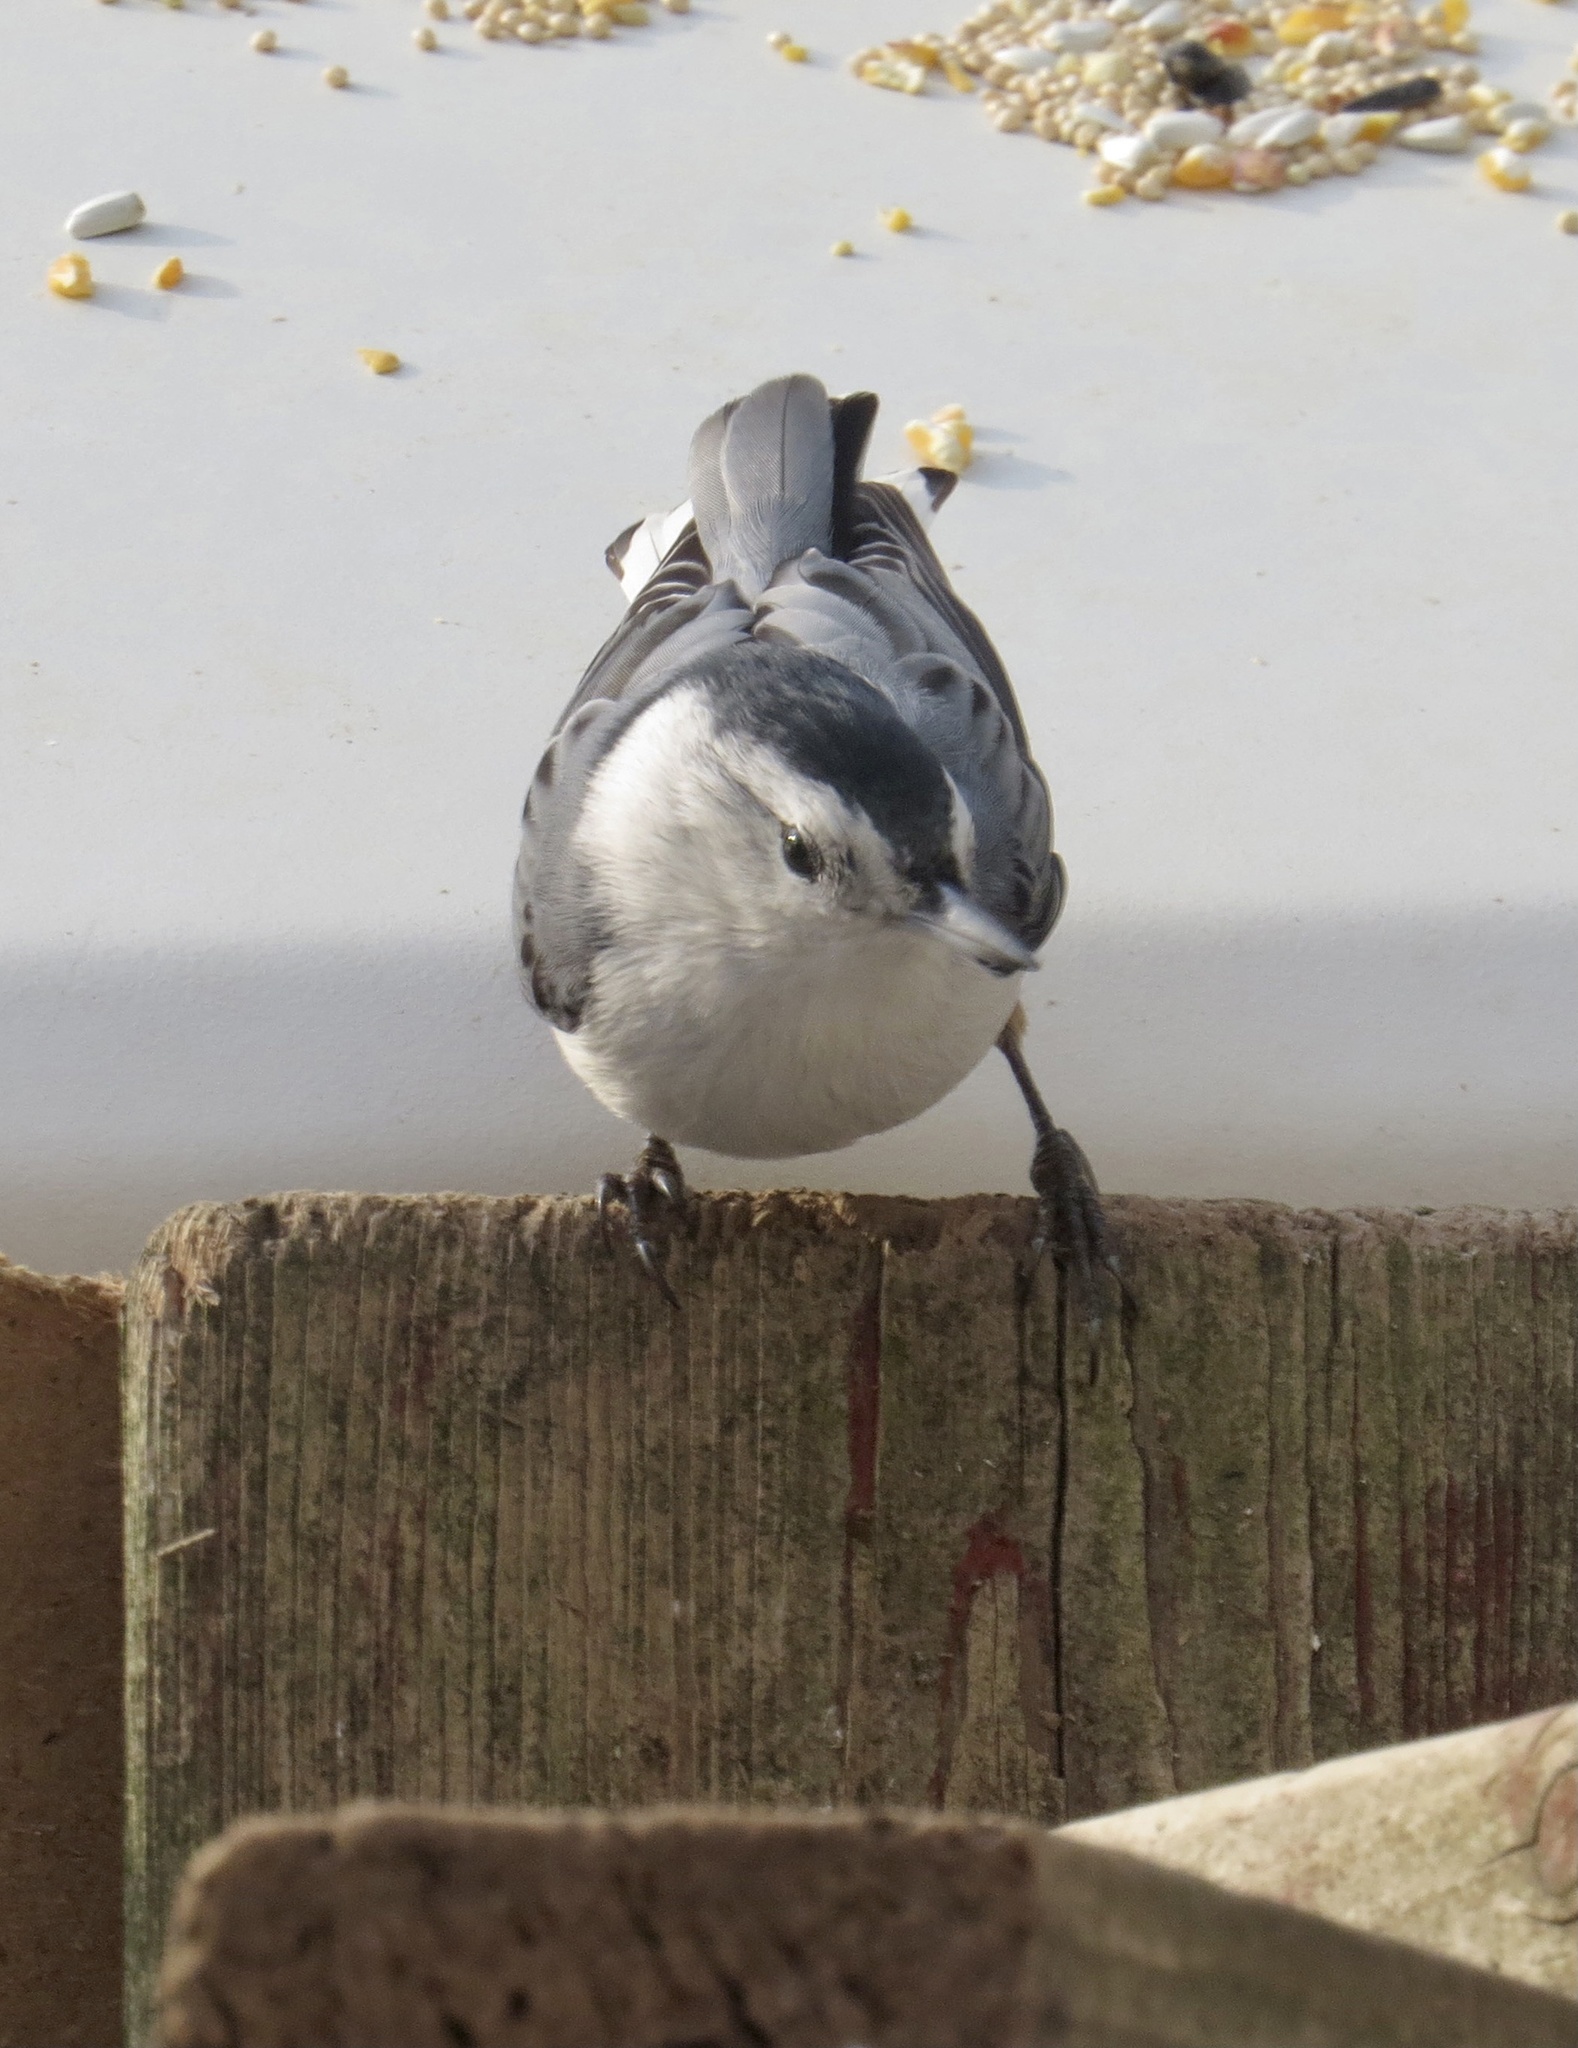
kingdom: Animalia
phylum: Chordata
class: Aves
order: Passeriformes
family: Sittidae
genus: Sitta
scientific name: Sitta carolinensis
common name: White-breasted nuthatch
